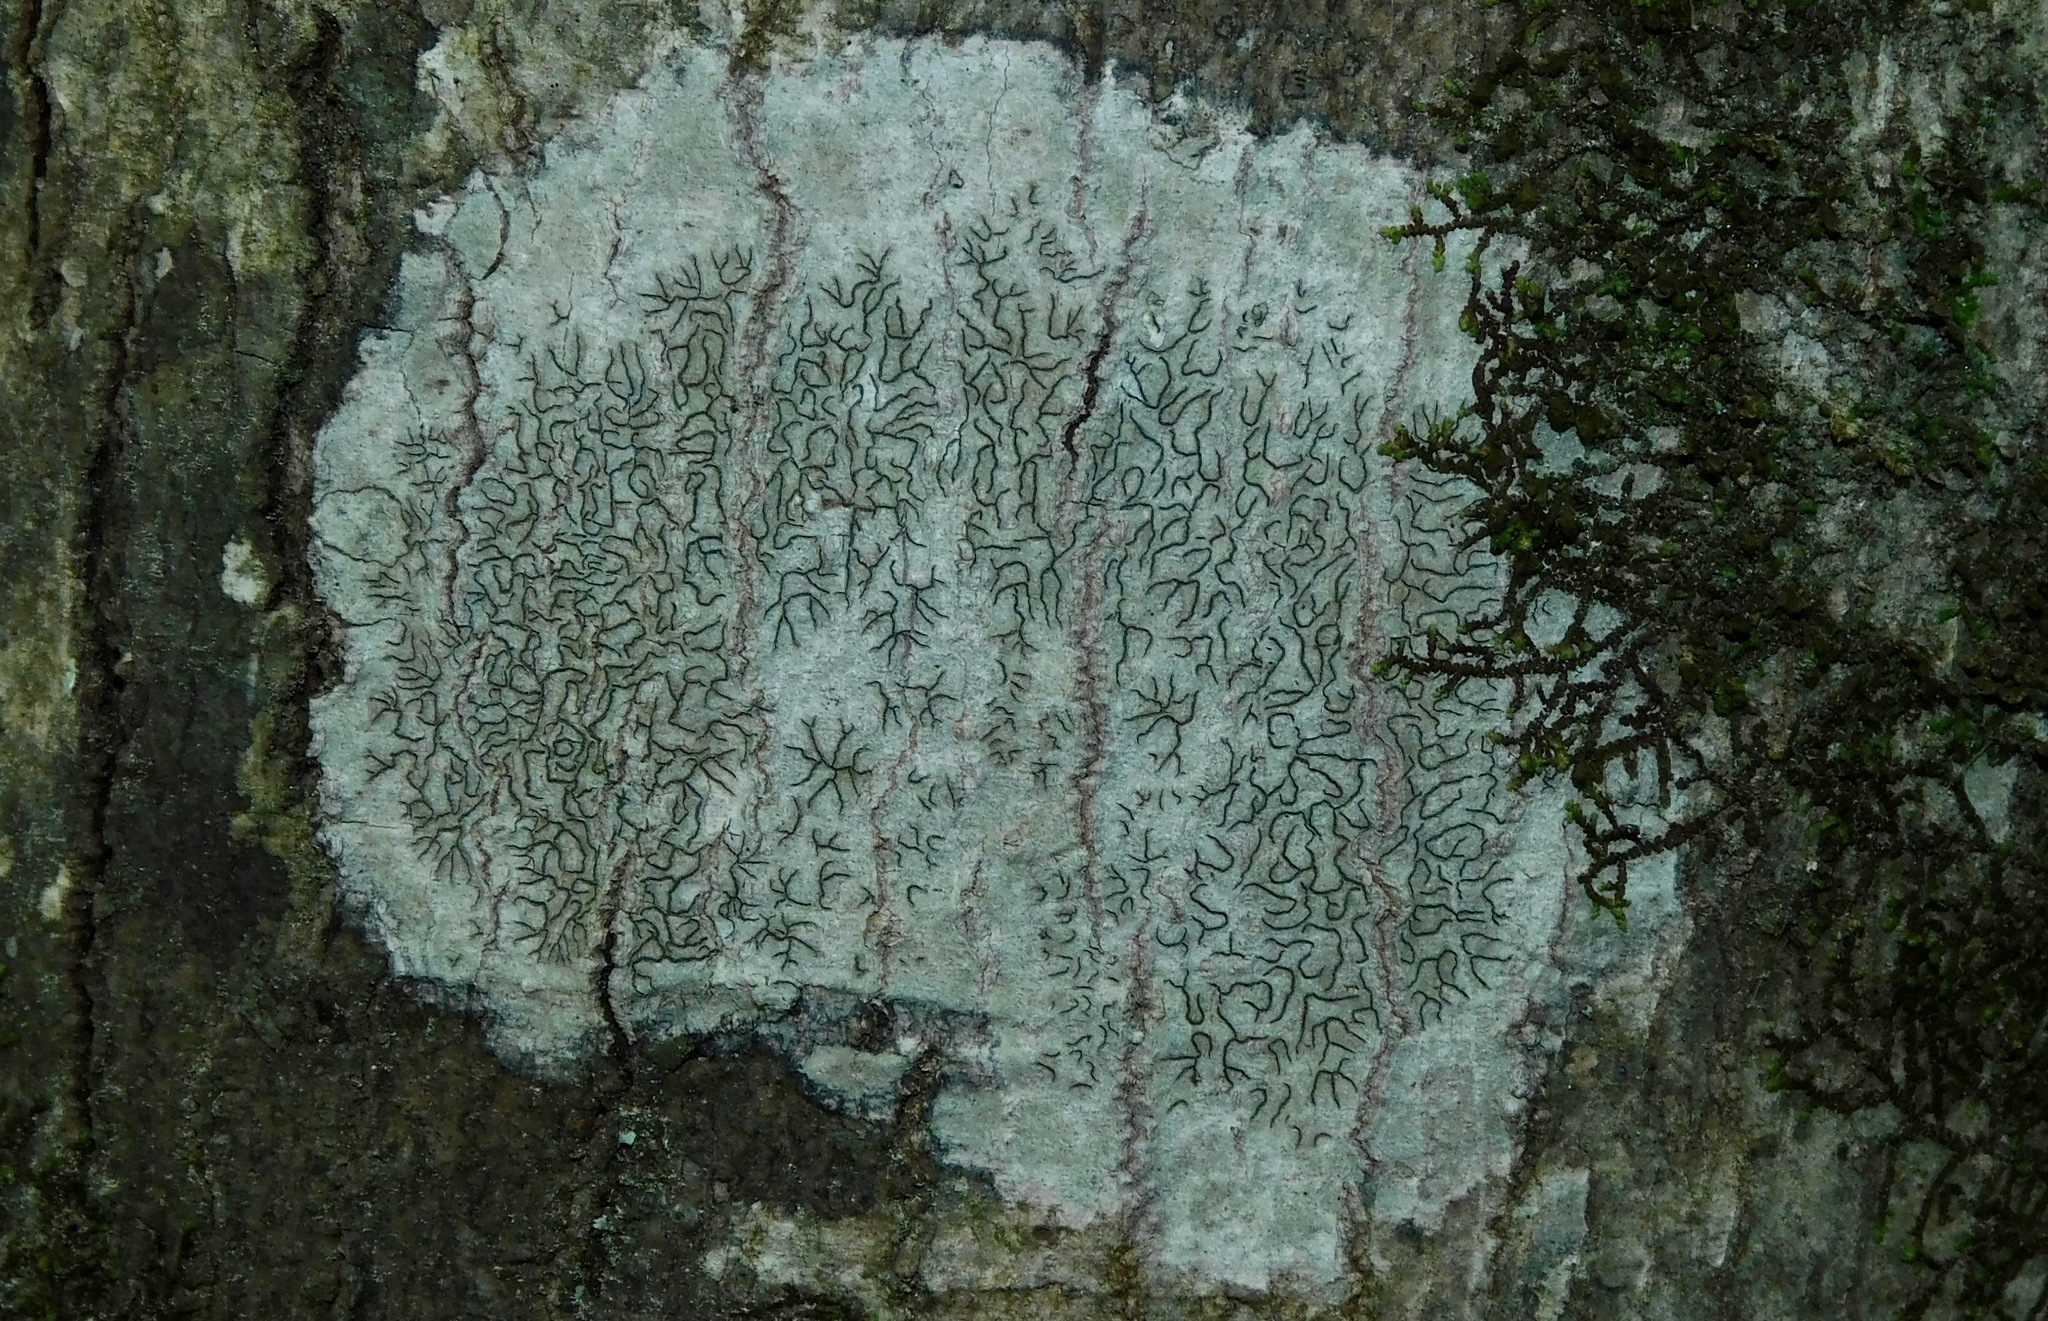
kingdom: Fungi
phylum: Ascomycota
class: Lecanoromycetes
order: Ostropales
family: Graphidaceae
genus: Graphis
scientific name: Graphis scripta
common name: Script lichen
